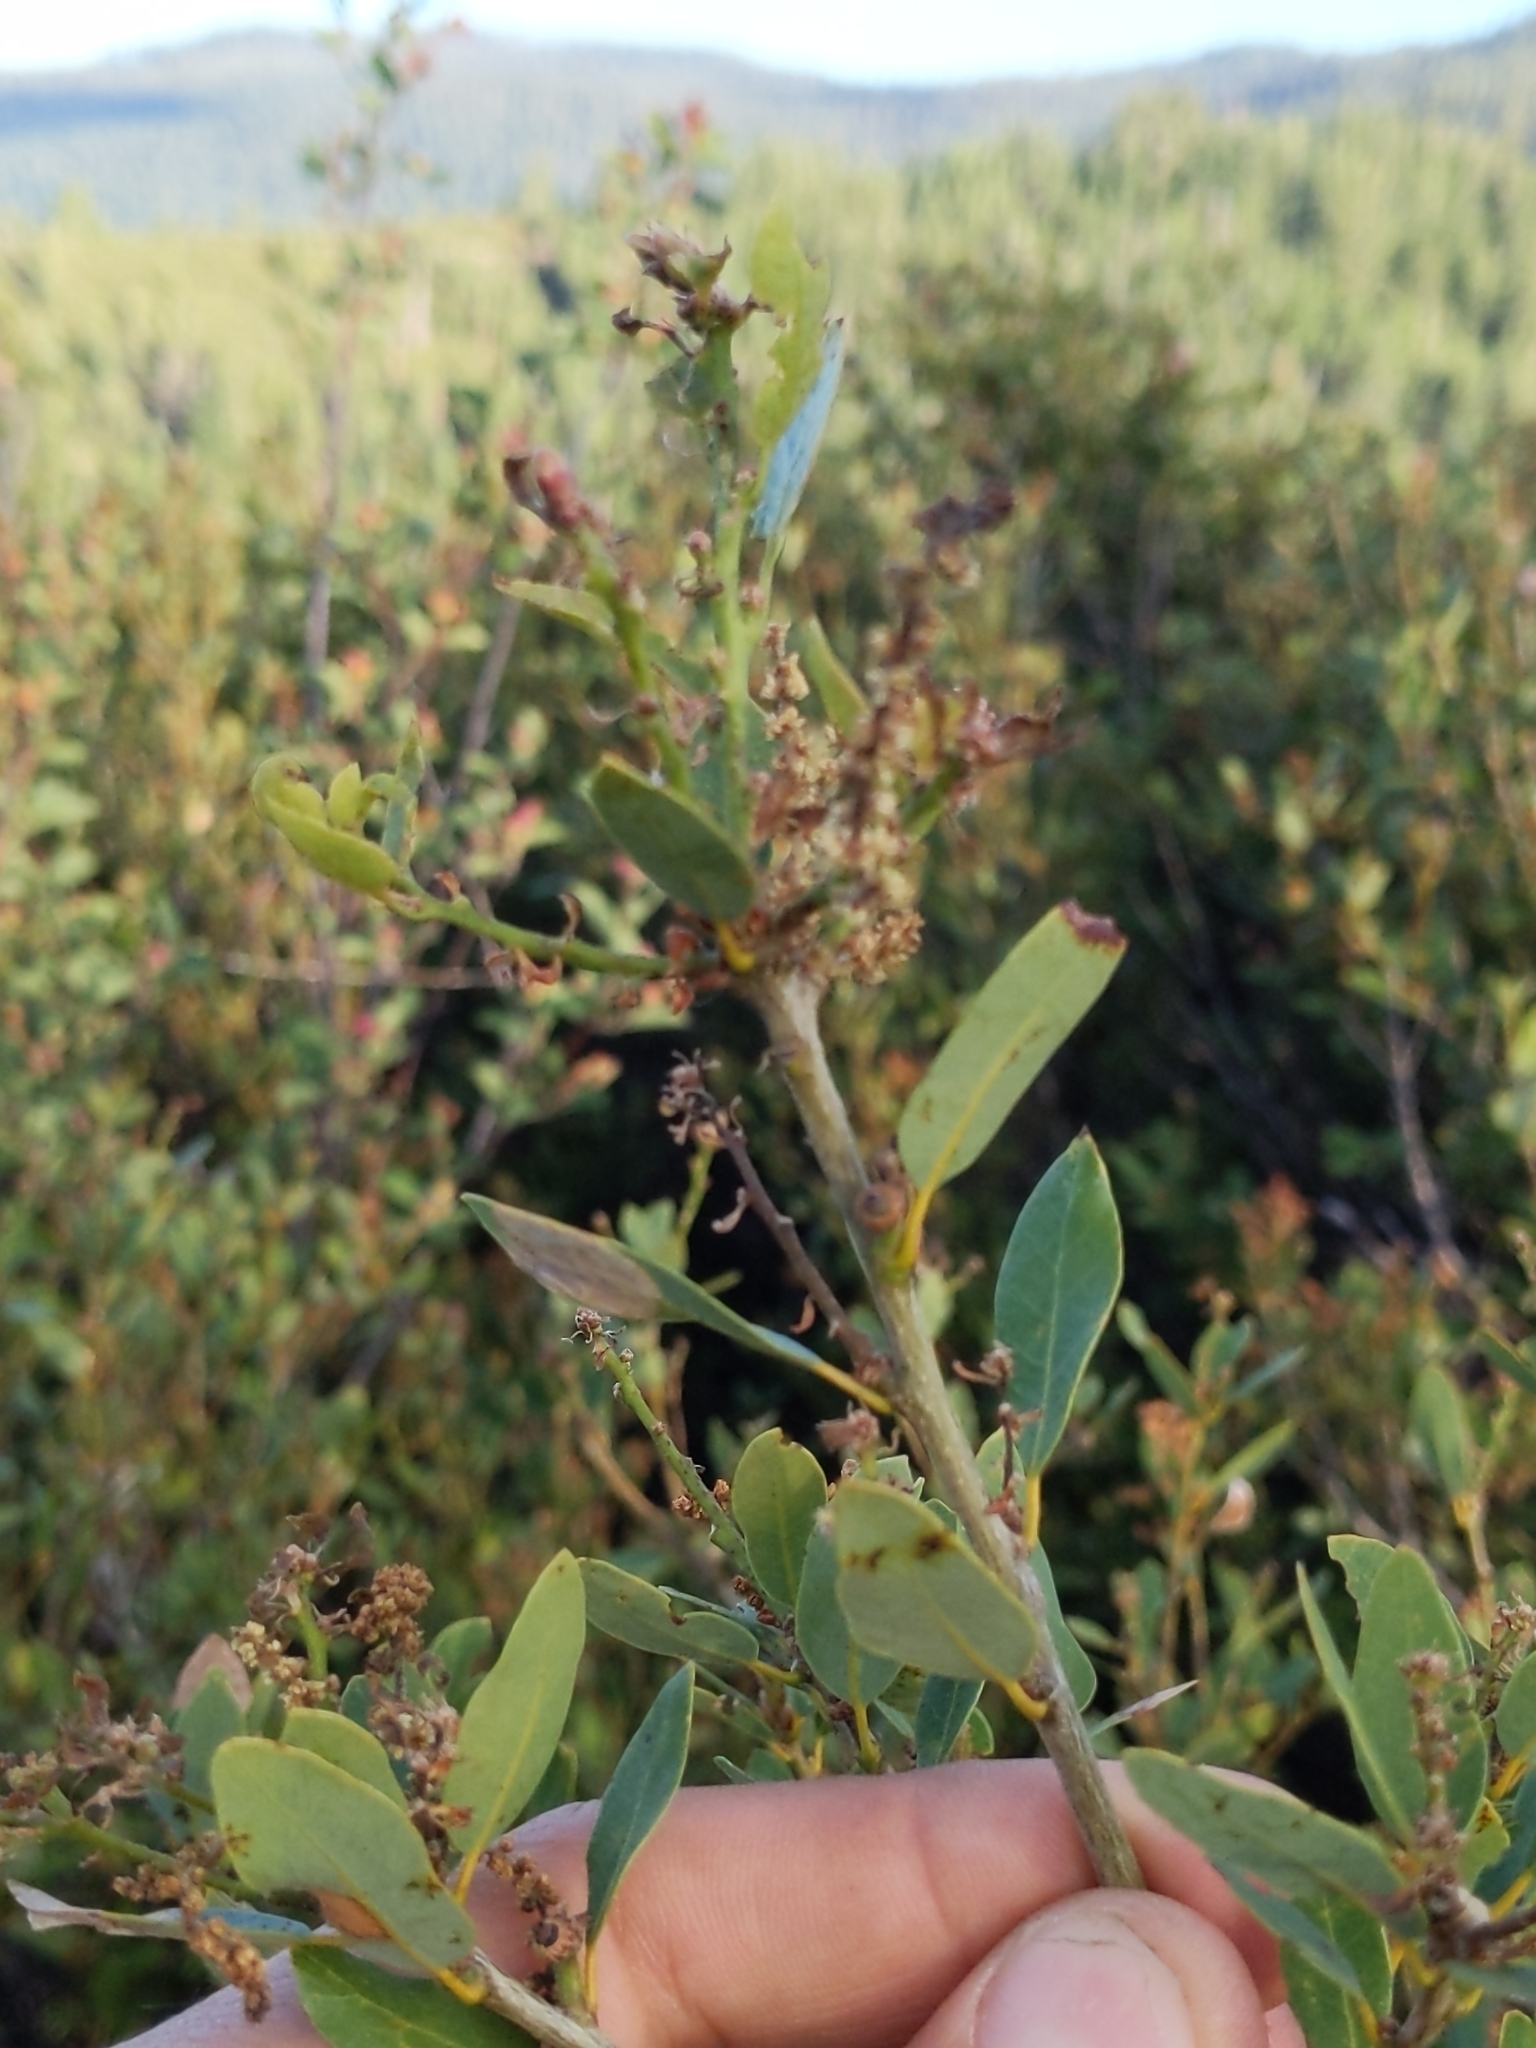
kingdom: Plantae
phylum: Tracheophyta
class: Magnoliopsida
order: Fagales
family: Fagaceae
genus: Quercus
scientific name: Quercus vacciniifolia
